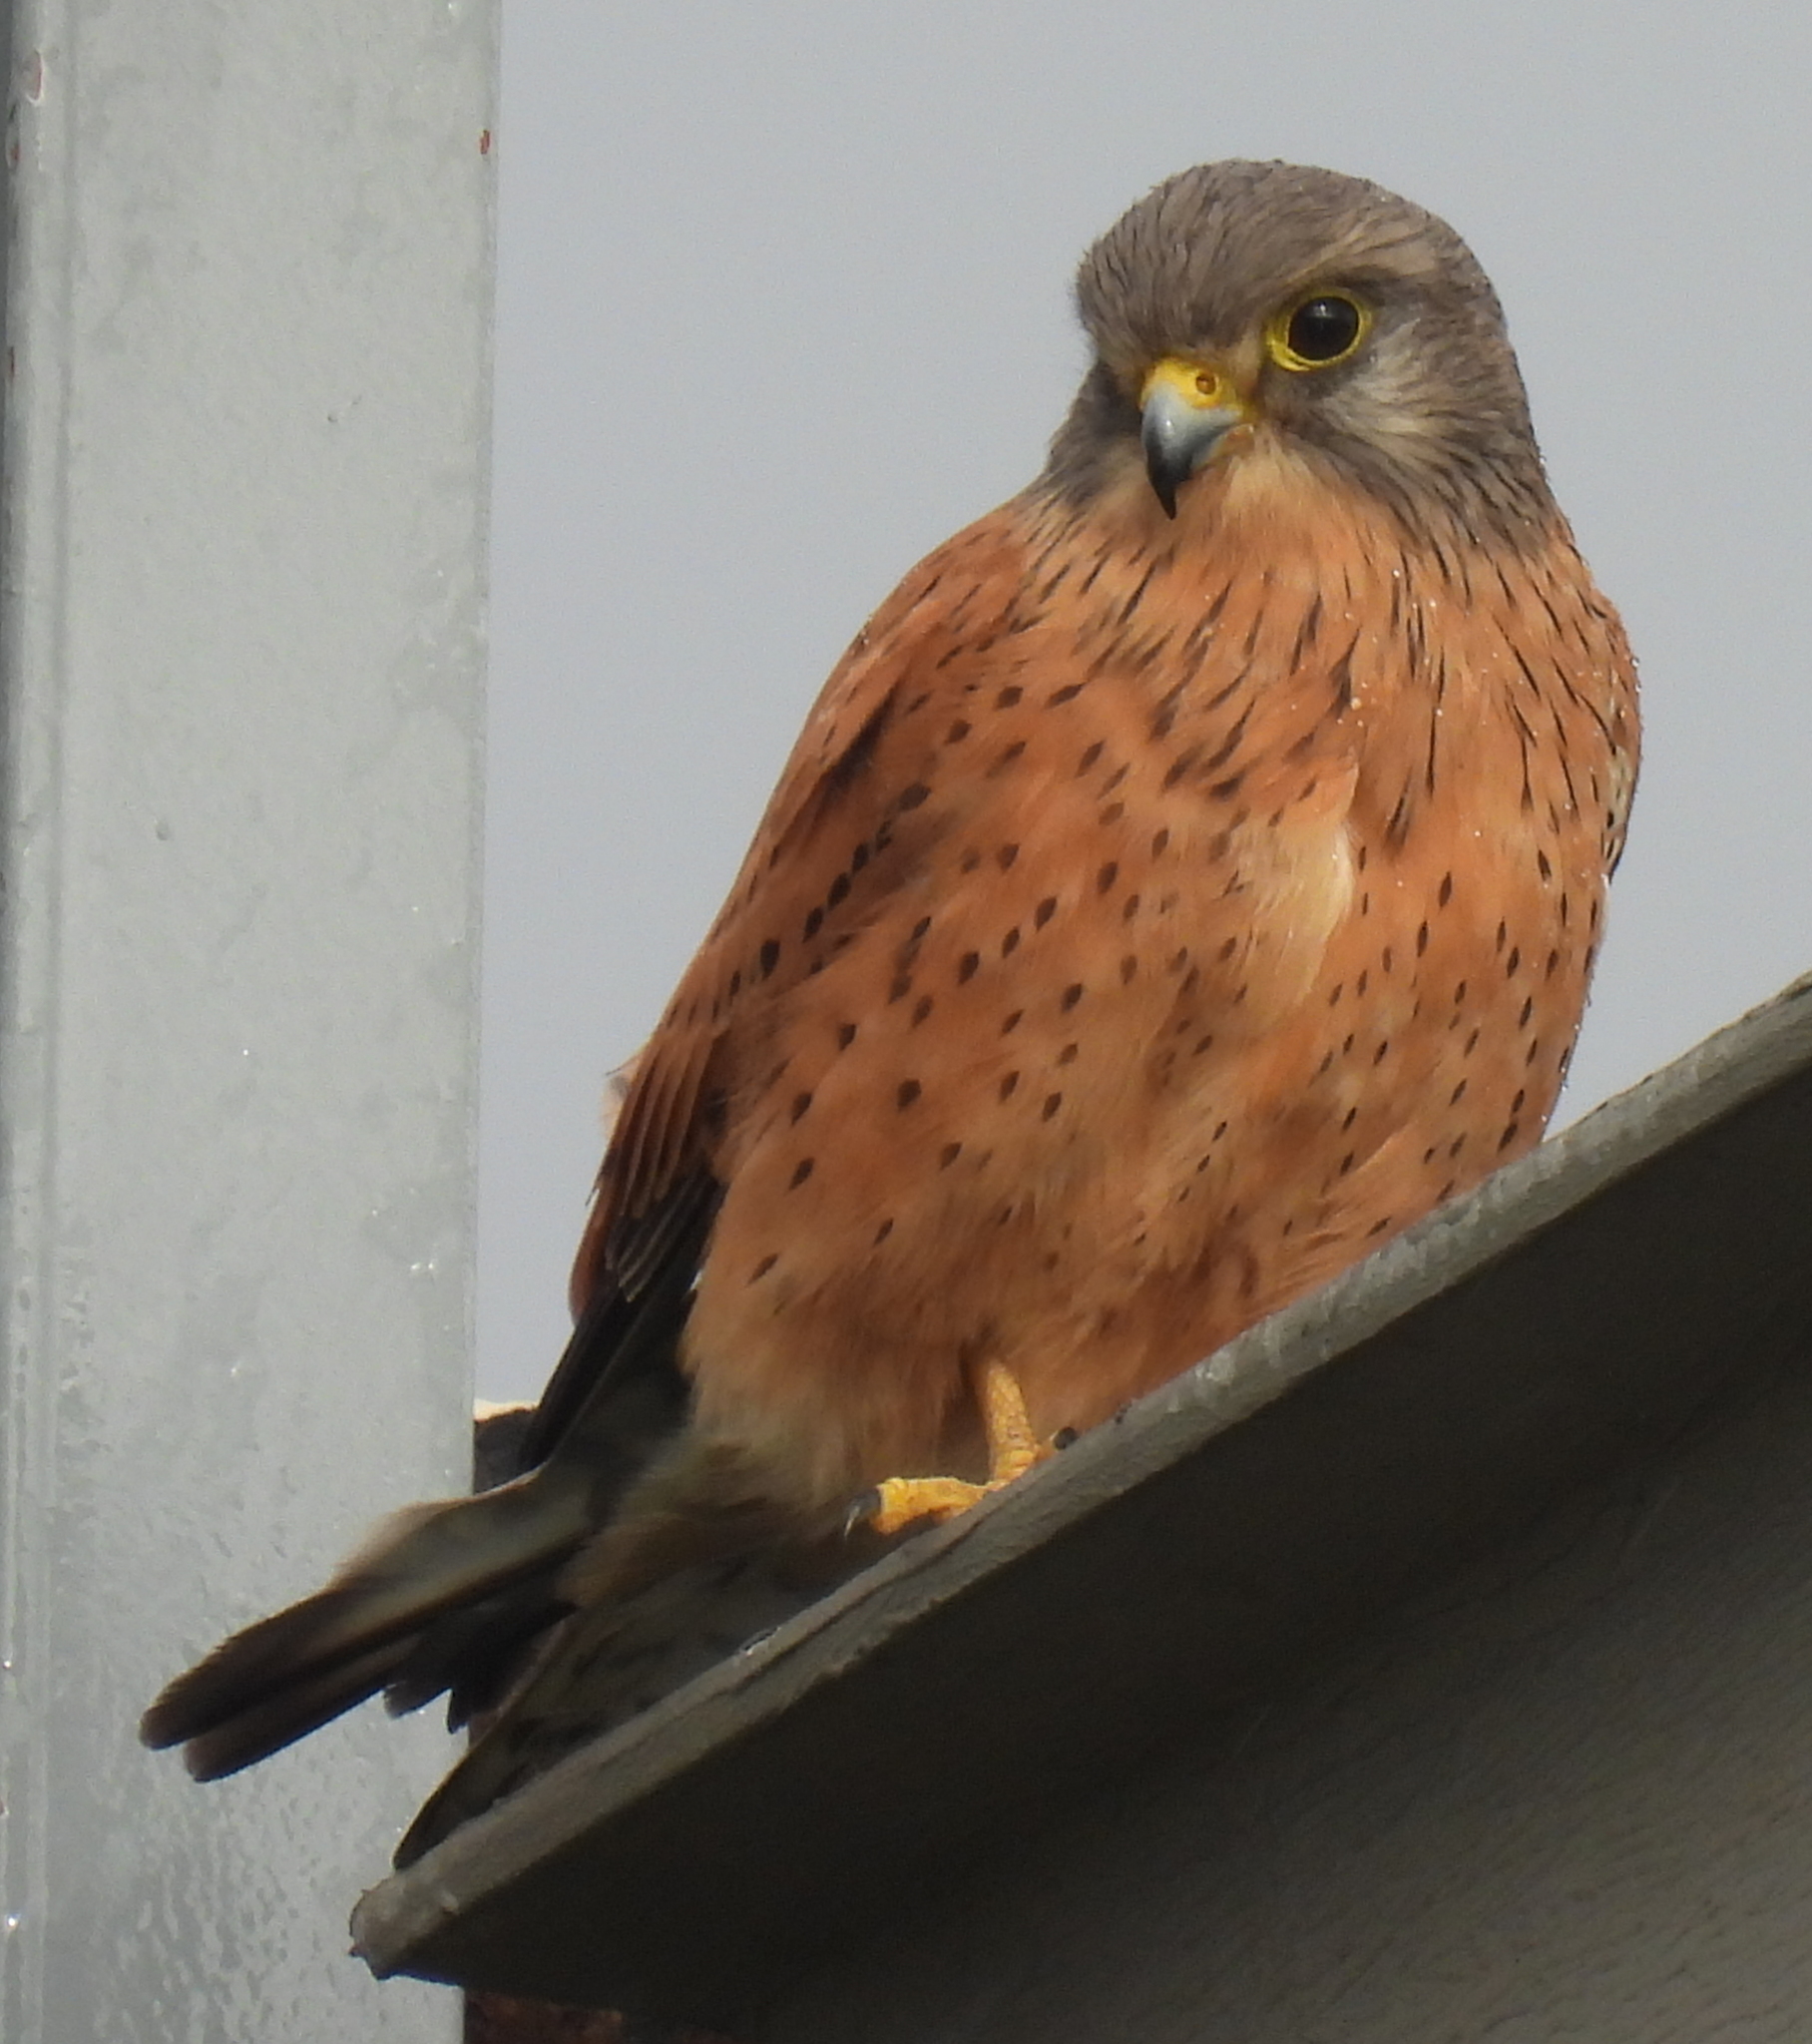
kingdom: Animalia
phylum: Chordata
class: Aves
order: Falconiformes
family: Falconidae
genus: Falco
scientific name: Falco rupicolus
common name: Rock kestrel
